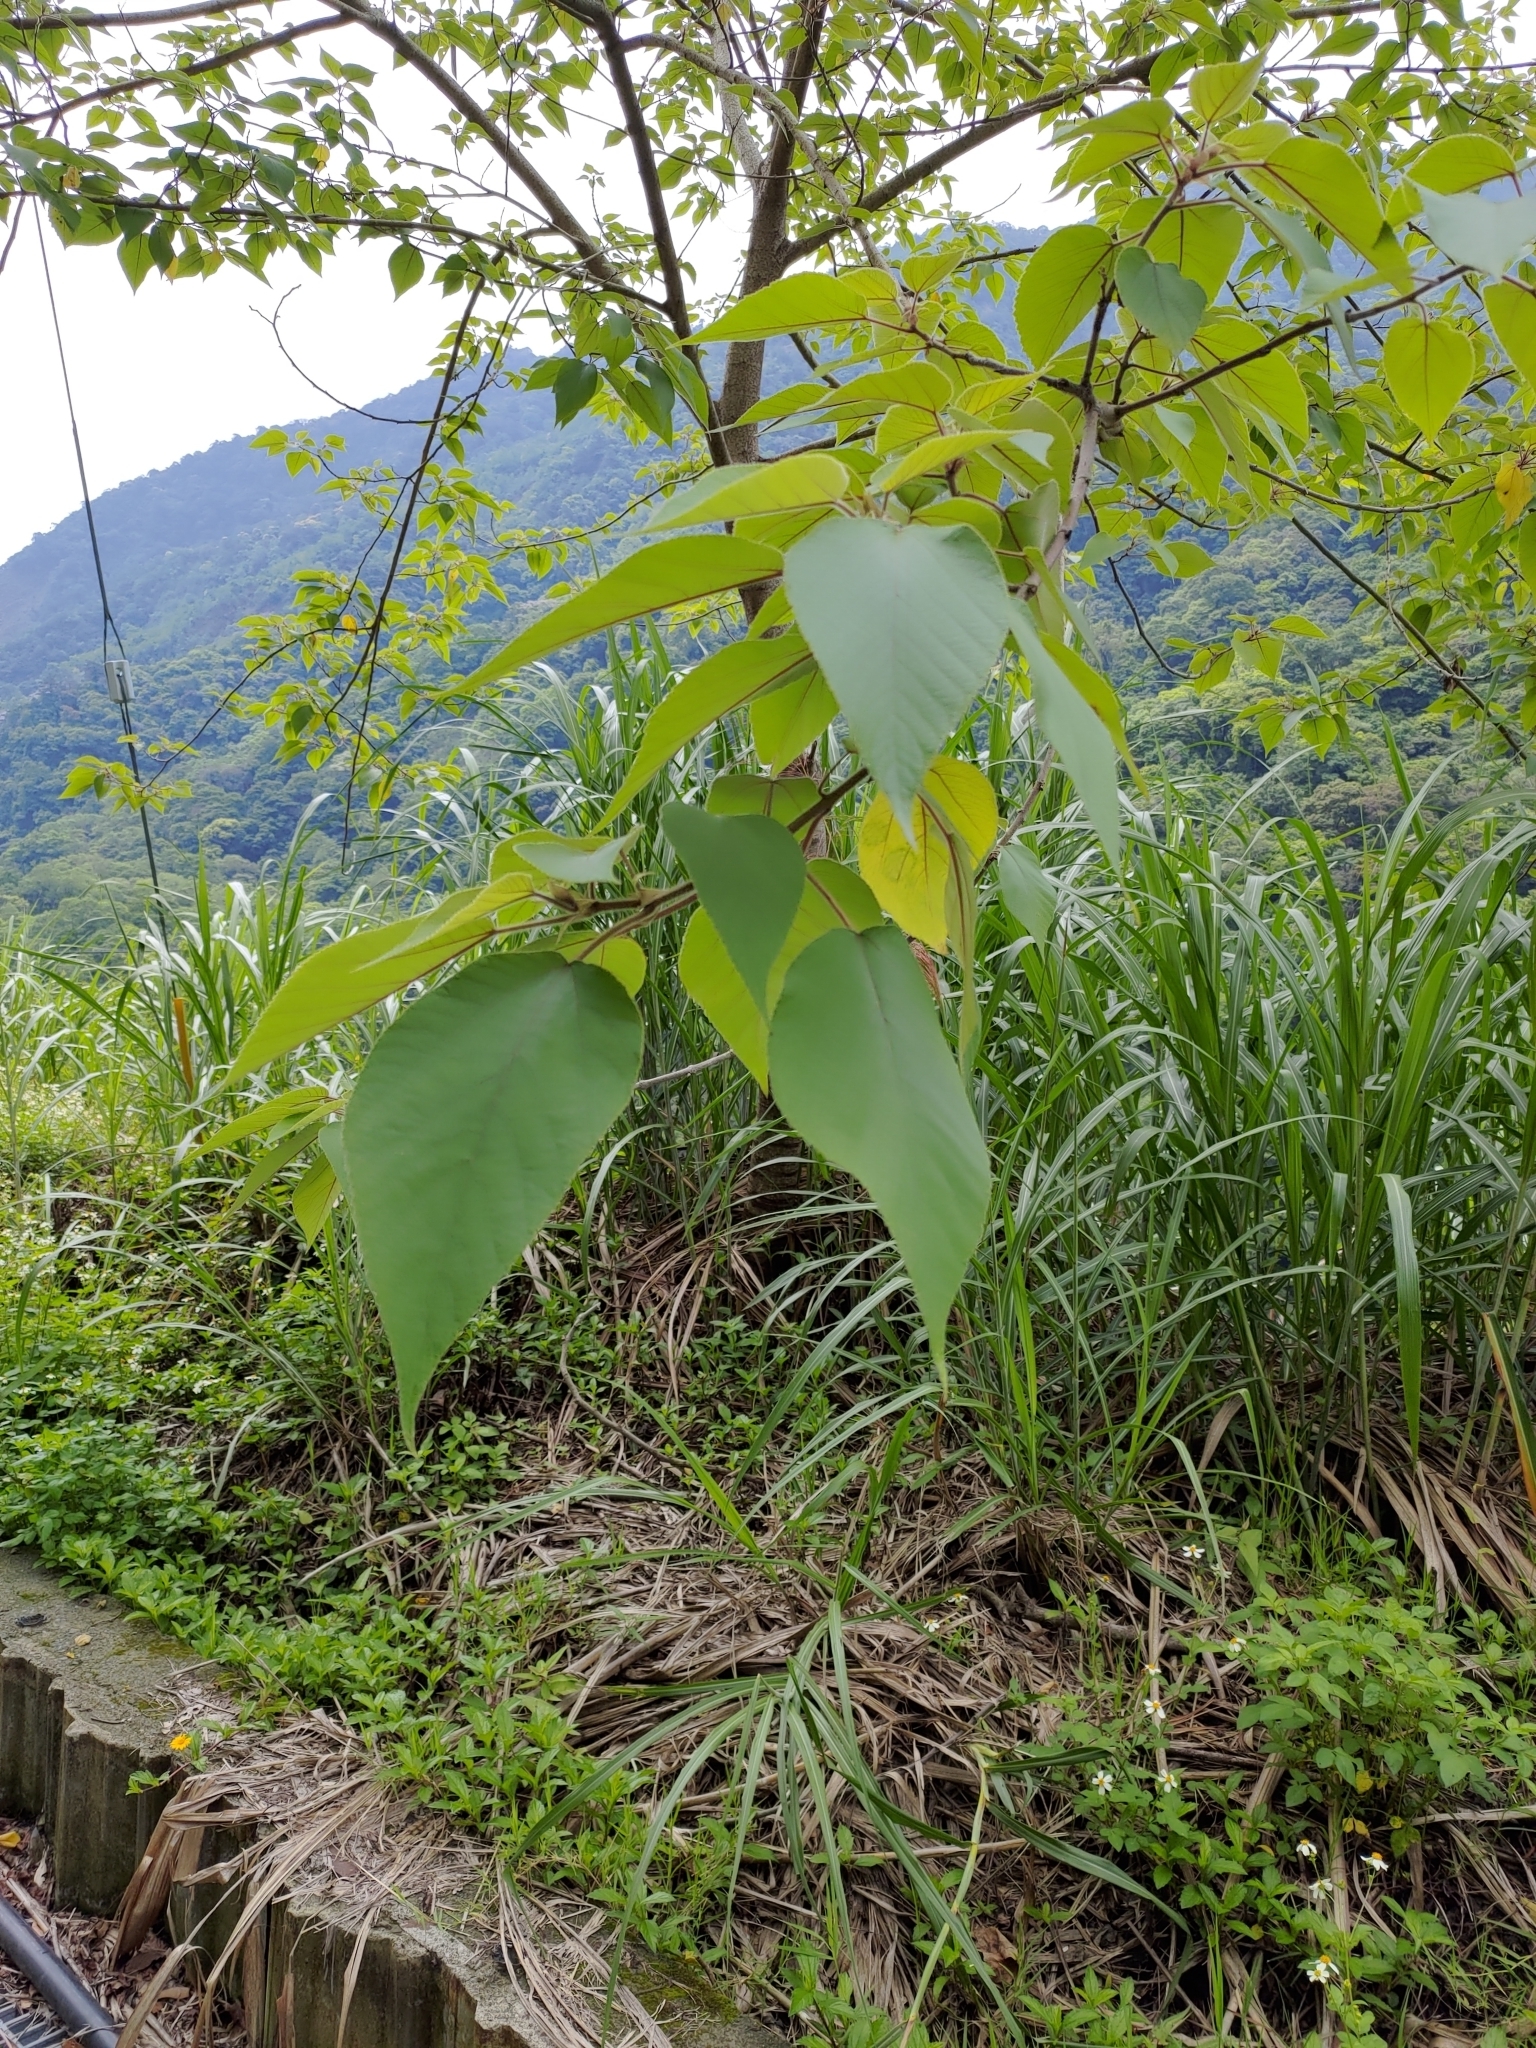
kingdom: Plantae
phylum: Tracheophyta
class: Magnoliopsida
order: Rosales
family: Moraceae
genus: Broussonetia
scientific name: Broussonetia papyrifera
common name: Paper mulberry
